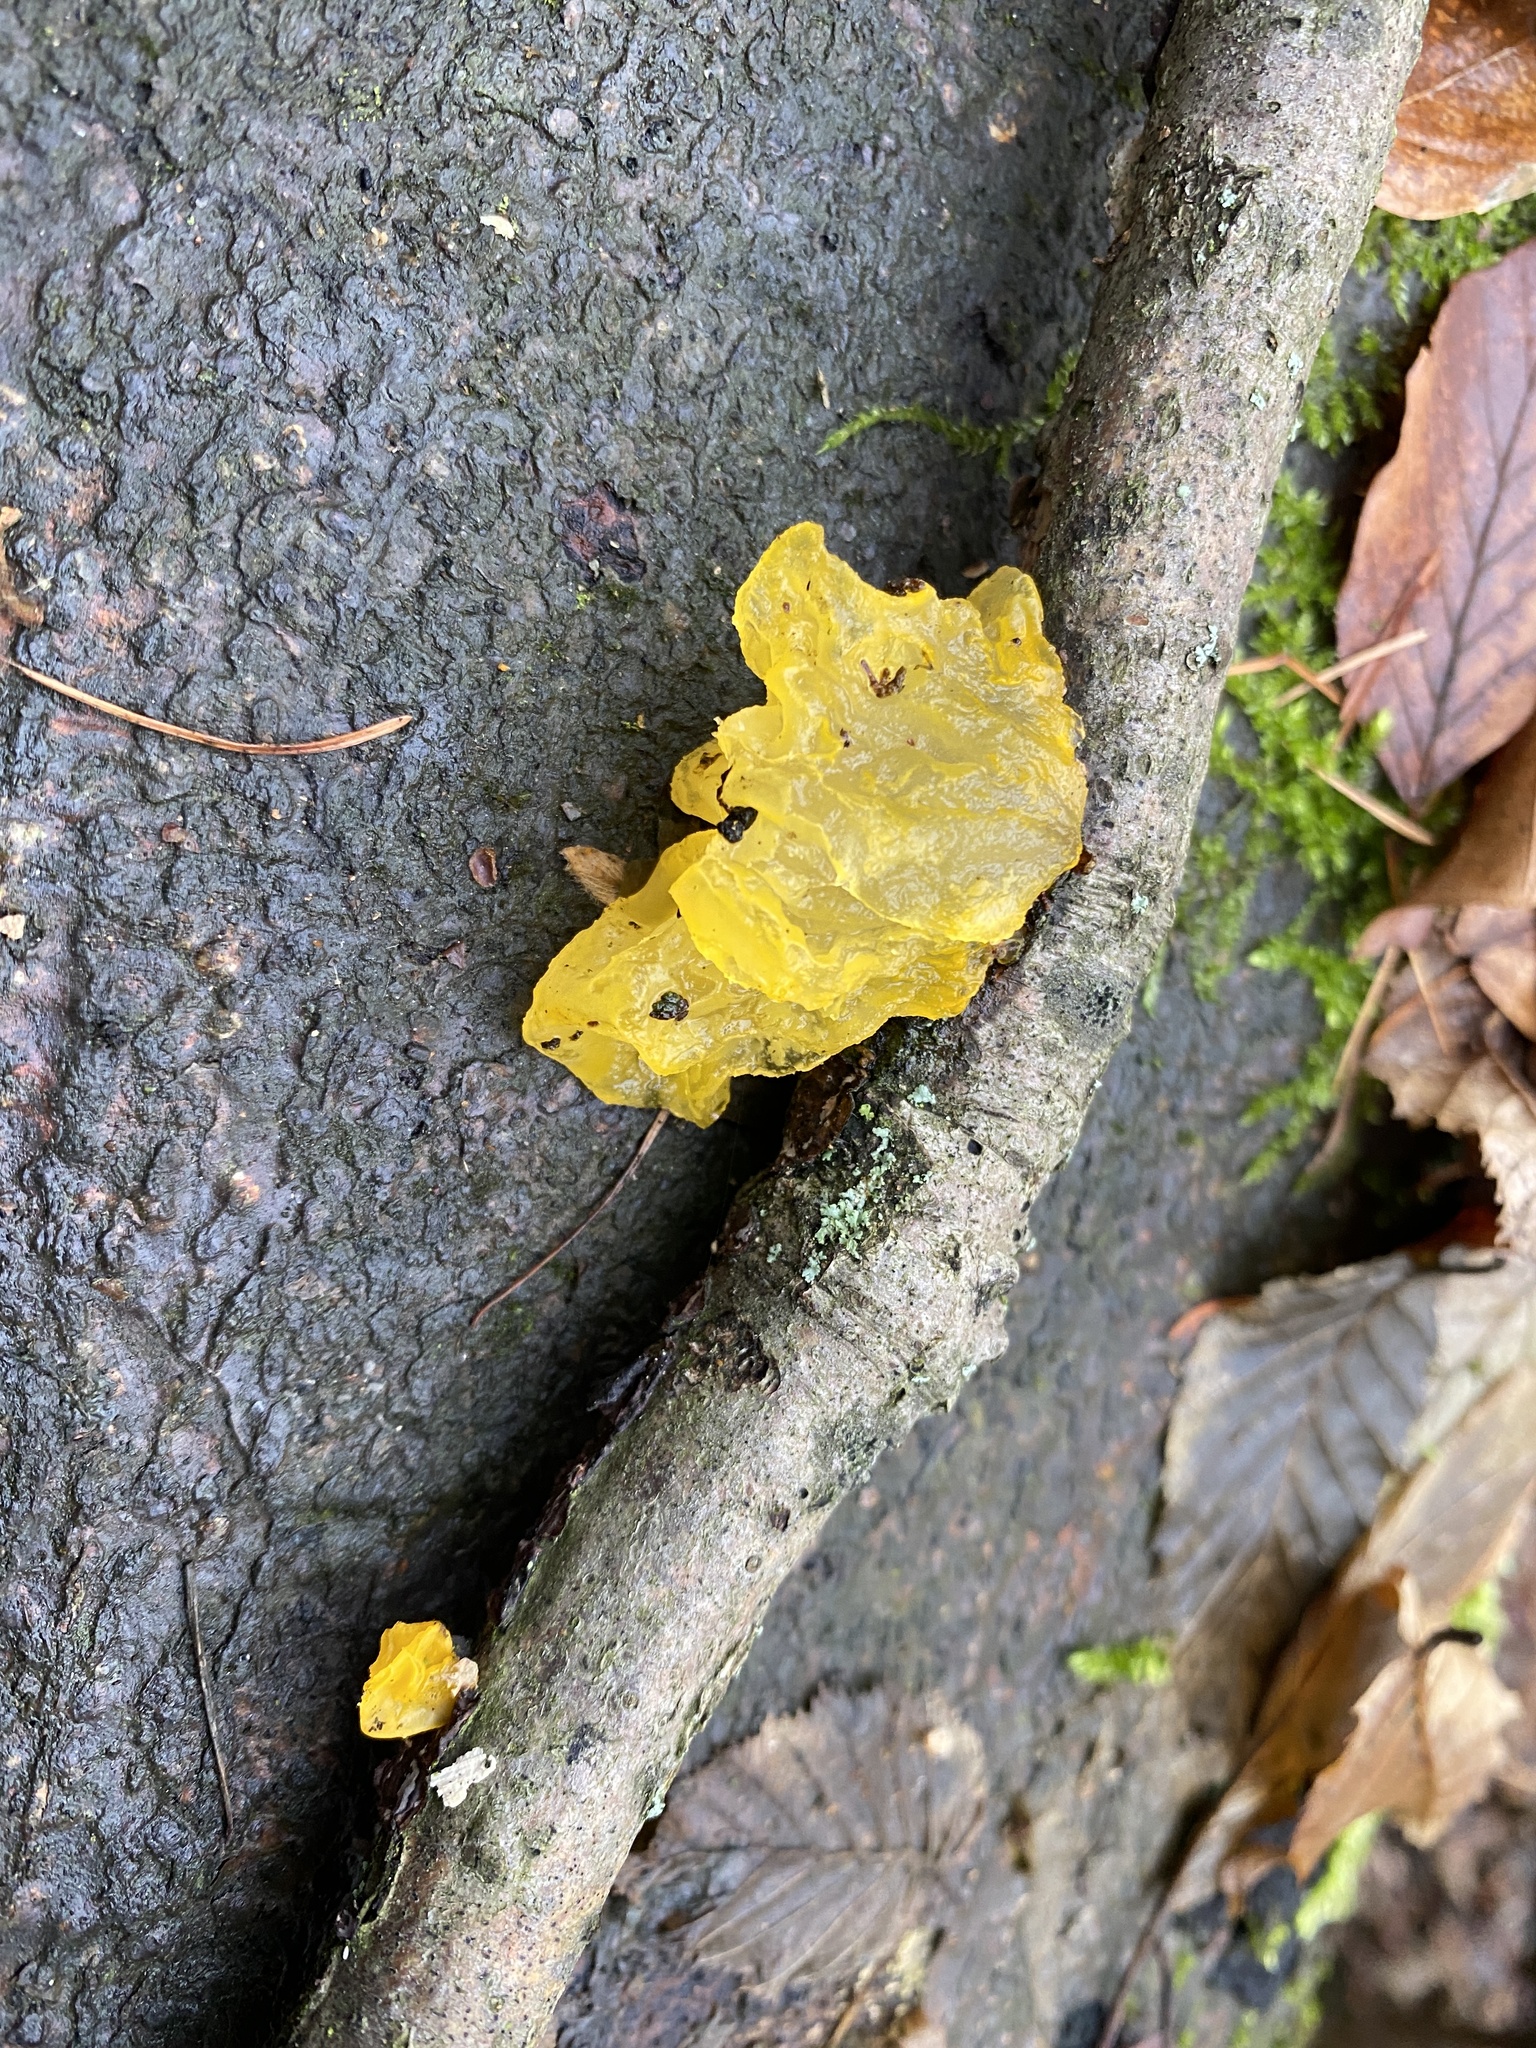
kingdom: Fungi
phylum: Basidiomycota
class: Tremellomycetes
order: Tremellales
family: Tremellaceae
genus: Tremella
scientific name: Tremella mesenterica
